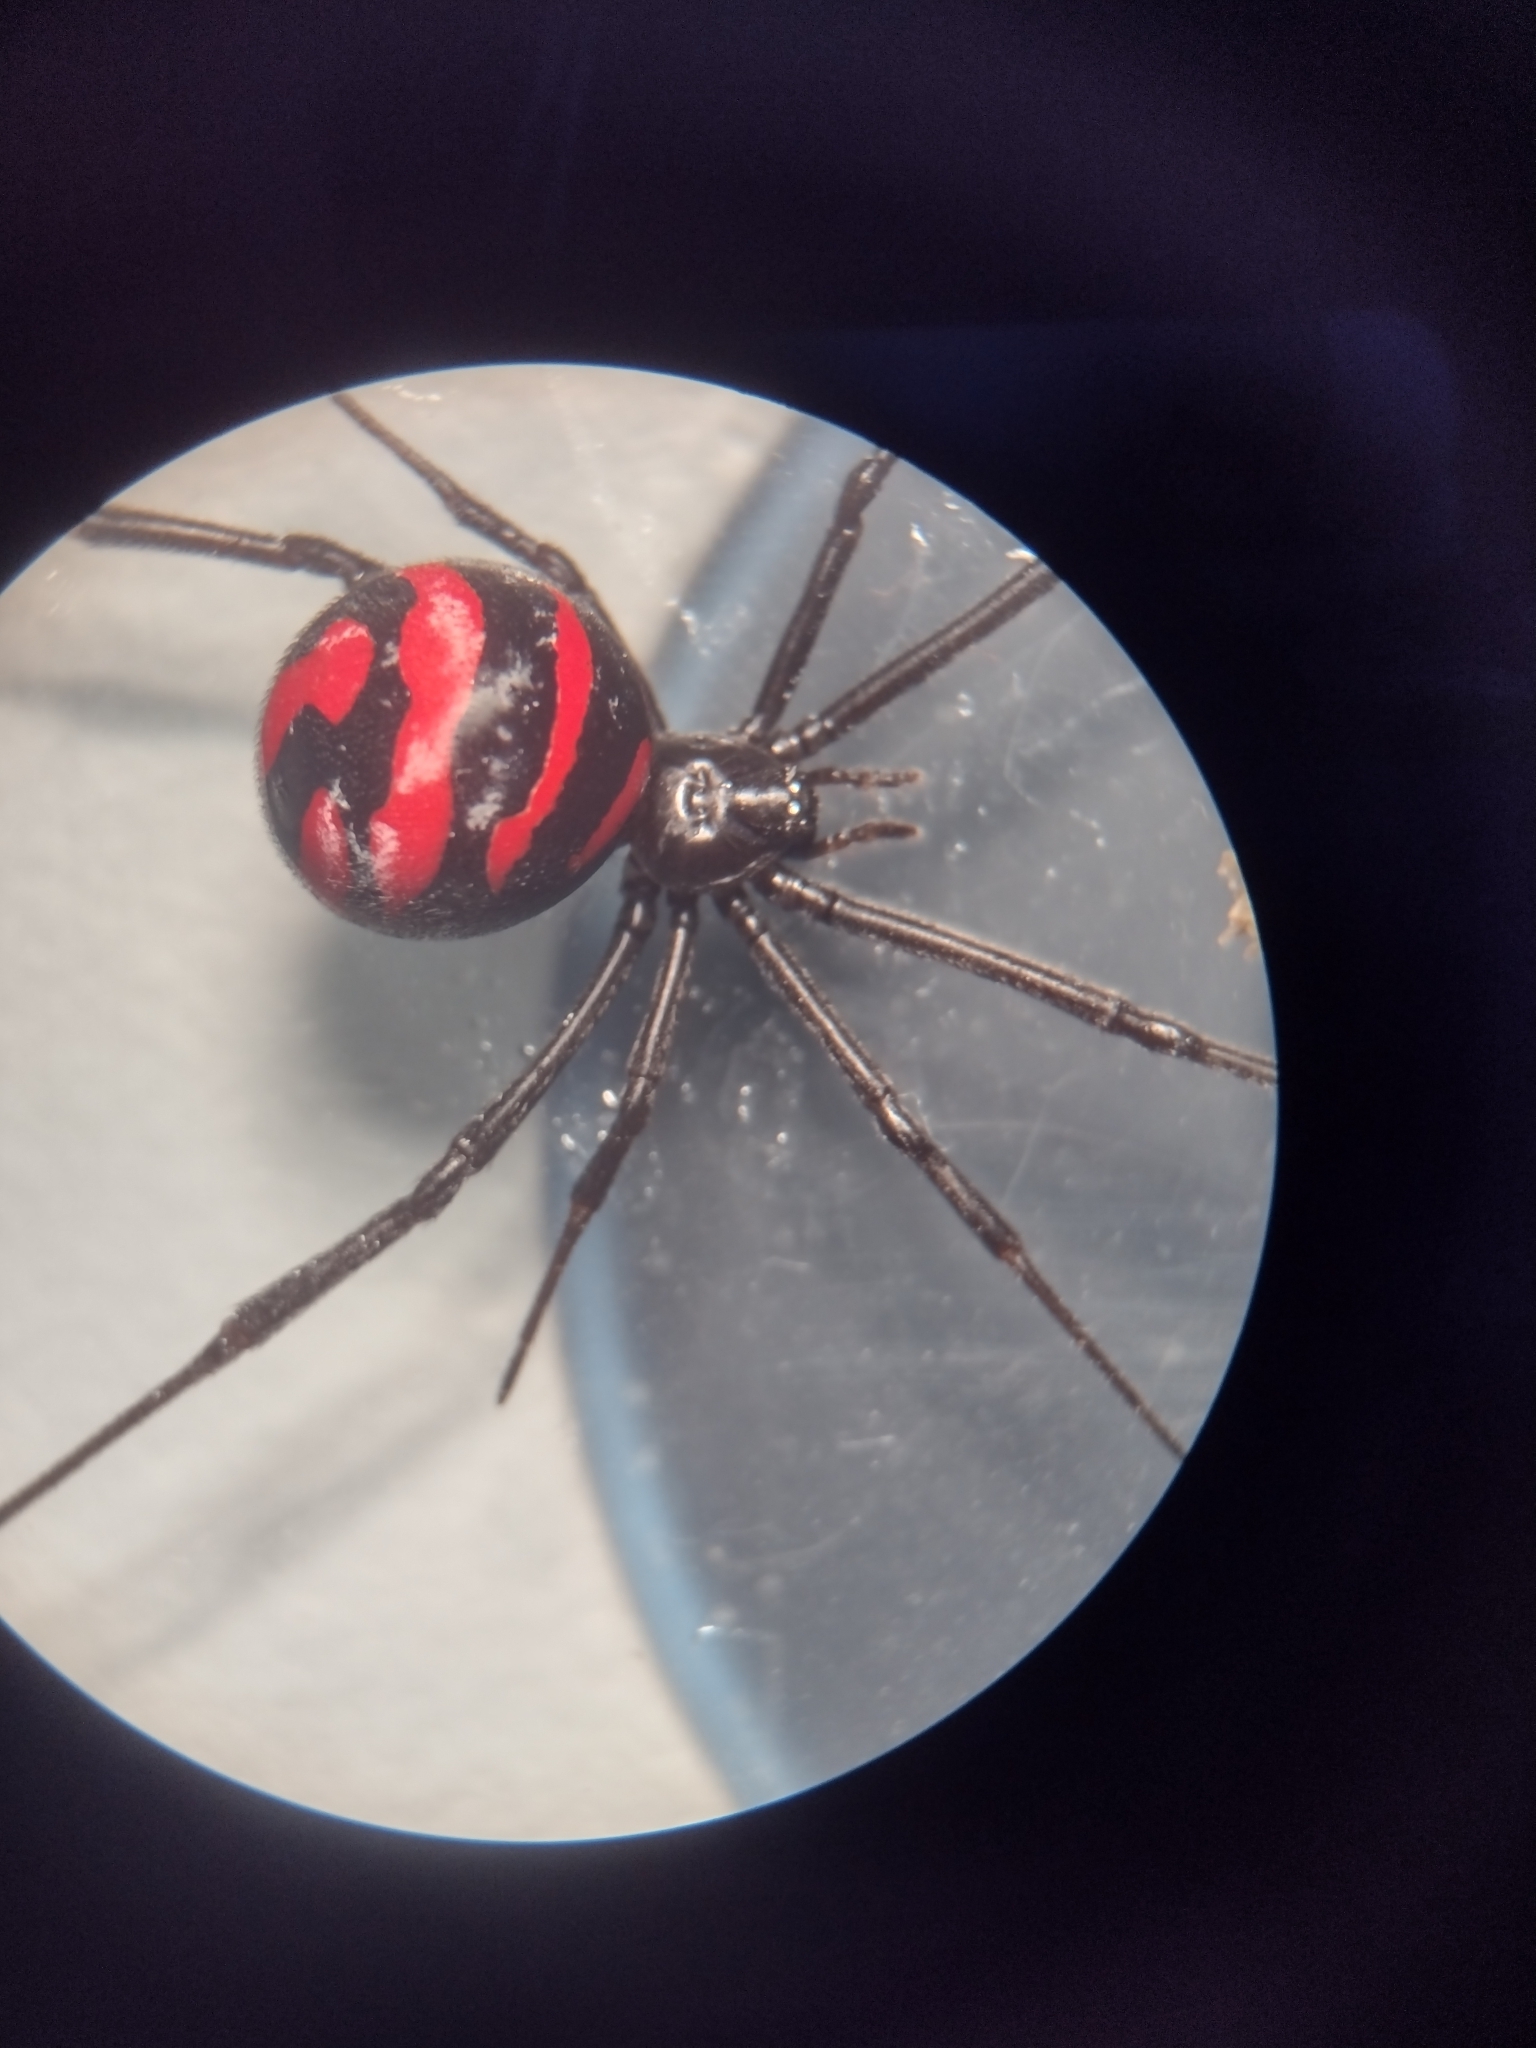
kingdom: Animalia
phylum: Arthropoda
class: Arachnida
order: Araneae
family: Theridiidae
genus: Latrodectus
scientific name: Latrodectus corallinus
